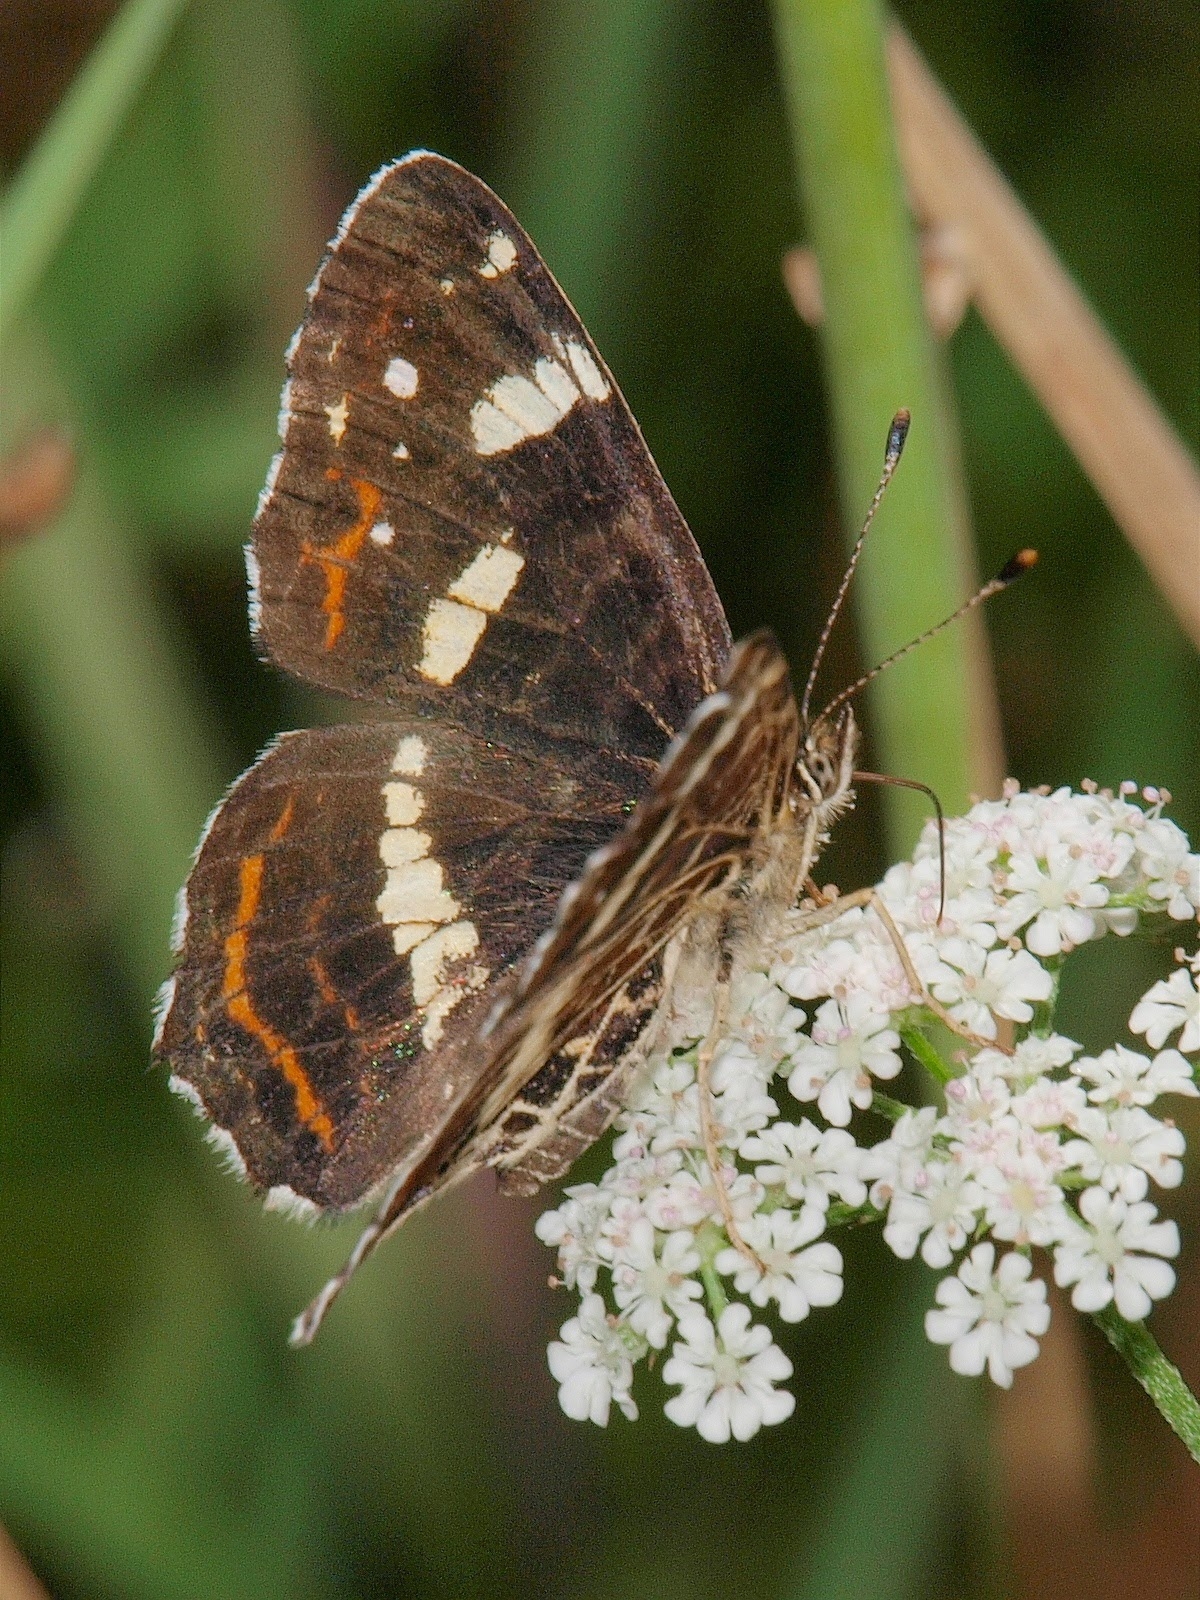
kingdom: Animalia
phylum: Arthropoda
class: Insecta
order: Lepidoptera
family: Nymphalidae
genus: Araschnia
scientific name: Araschnia levana
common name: Map butterfly
